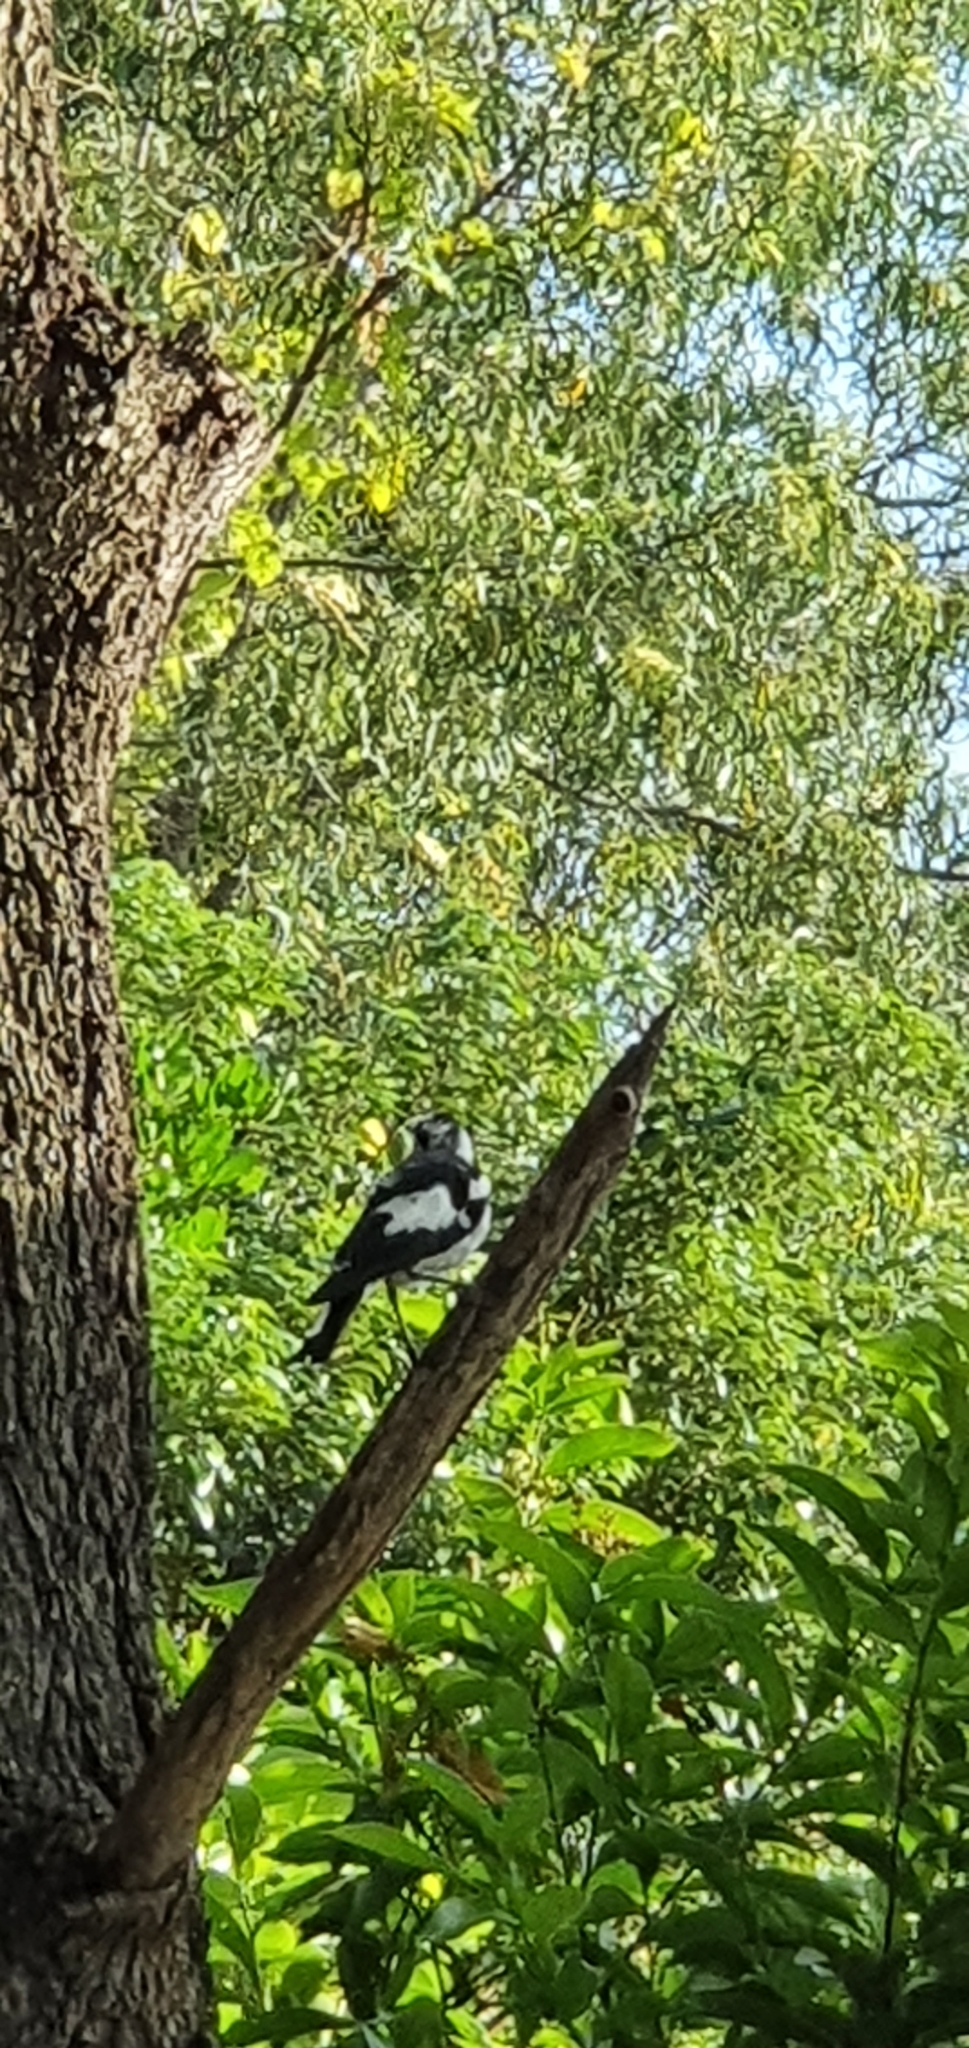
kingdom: Animalia
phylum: Chordata
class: Aves
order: Passeriformes
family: Monarchidae
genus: Grallina
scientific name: Grallina cyanoleuca
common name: Magpie-lark
